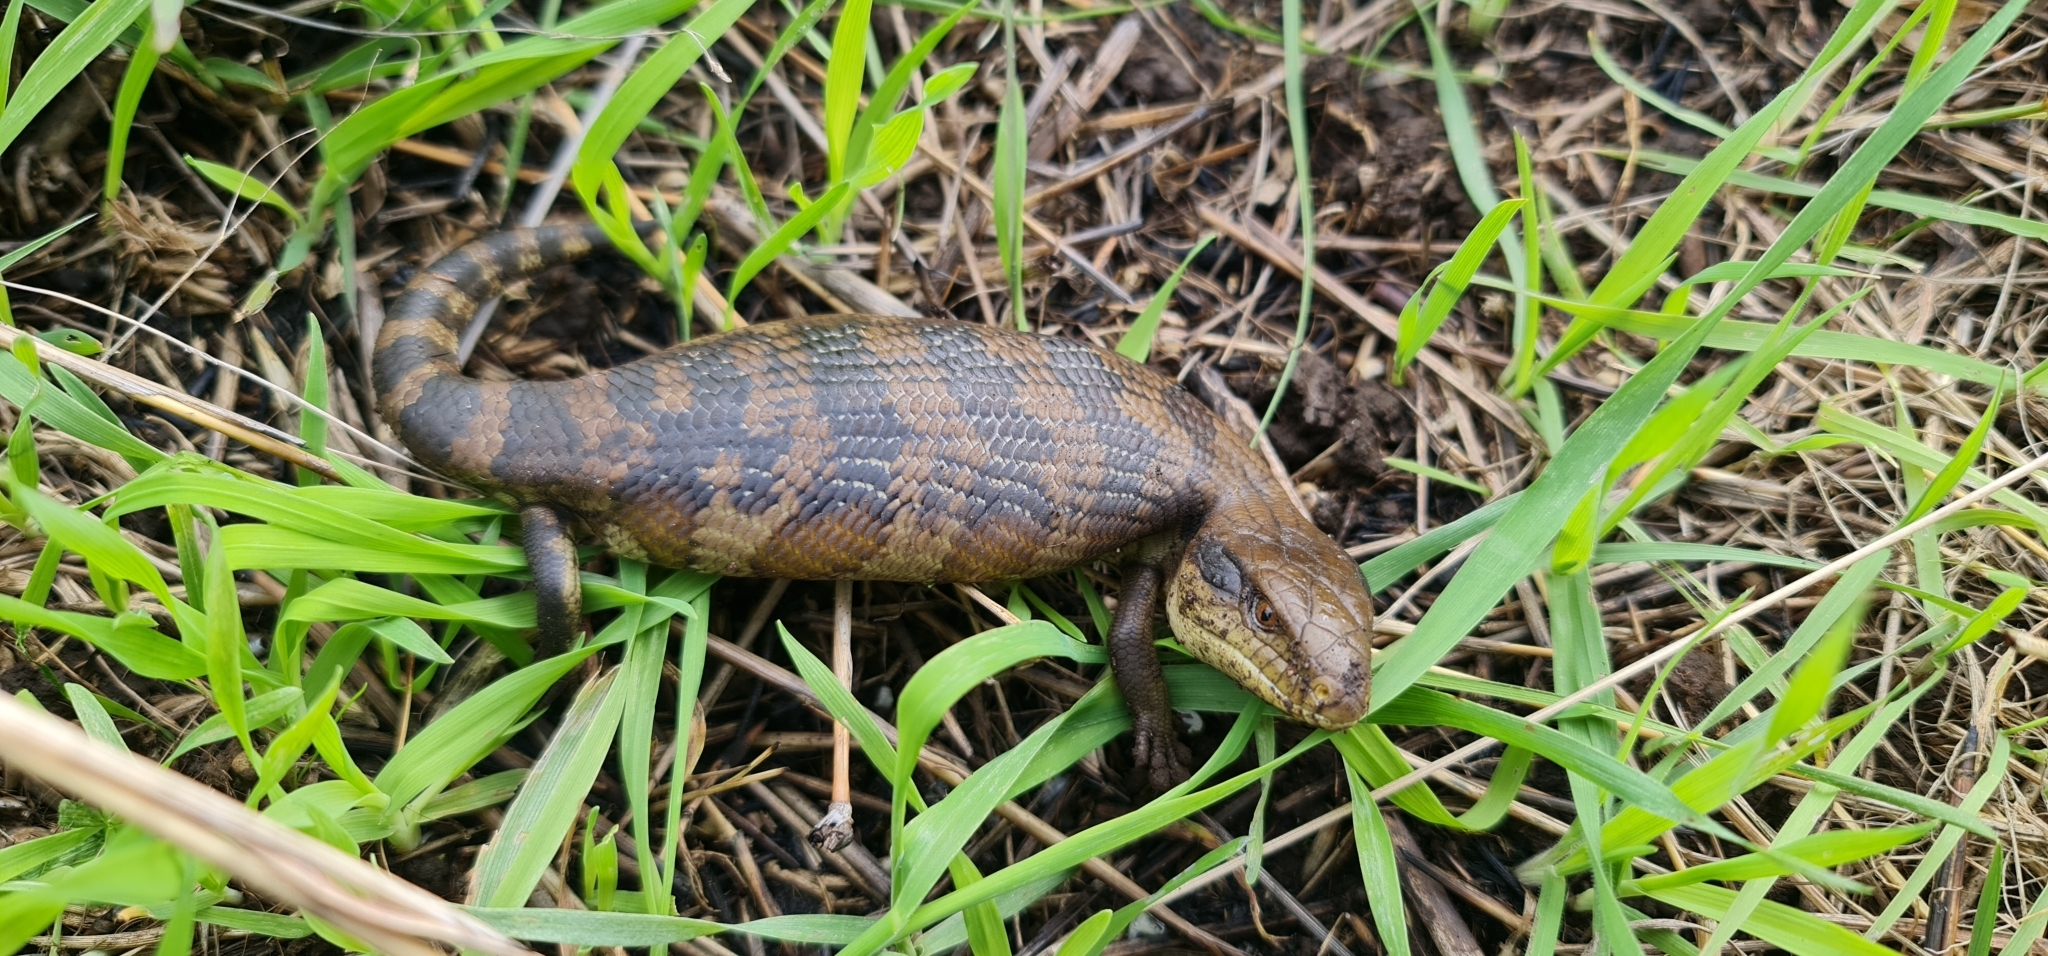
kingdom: Animalia
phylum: Chordata
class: Squamata
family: Scincidae
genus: Tiliqua
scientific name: Tiliqua scincoides
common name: Common bluetongue
